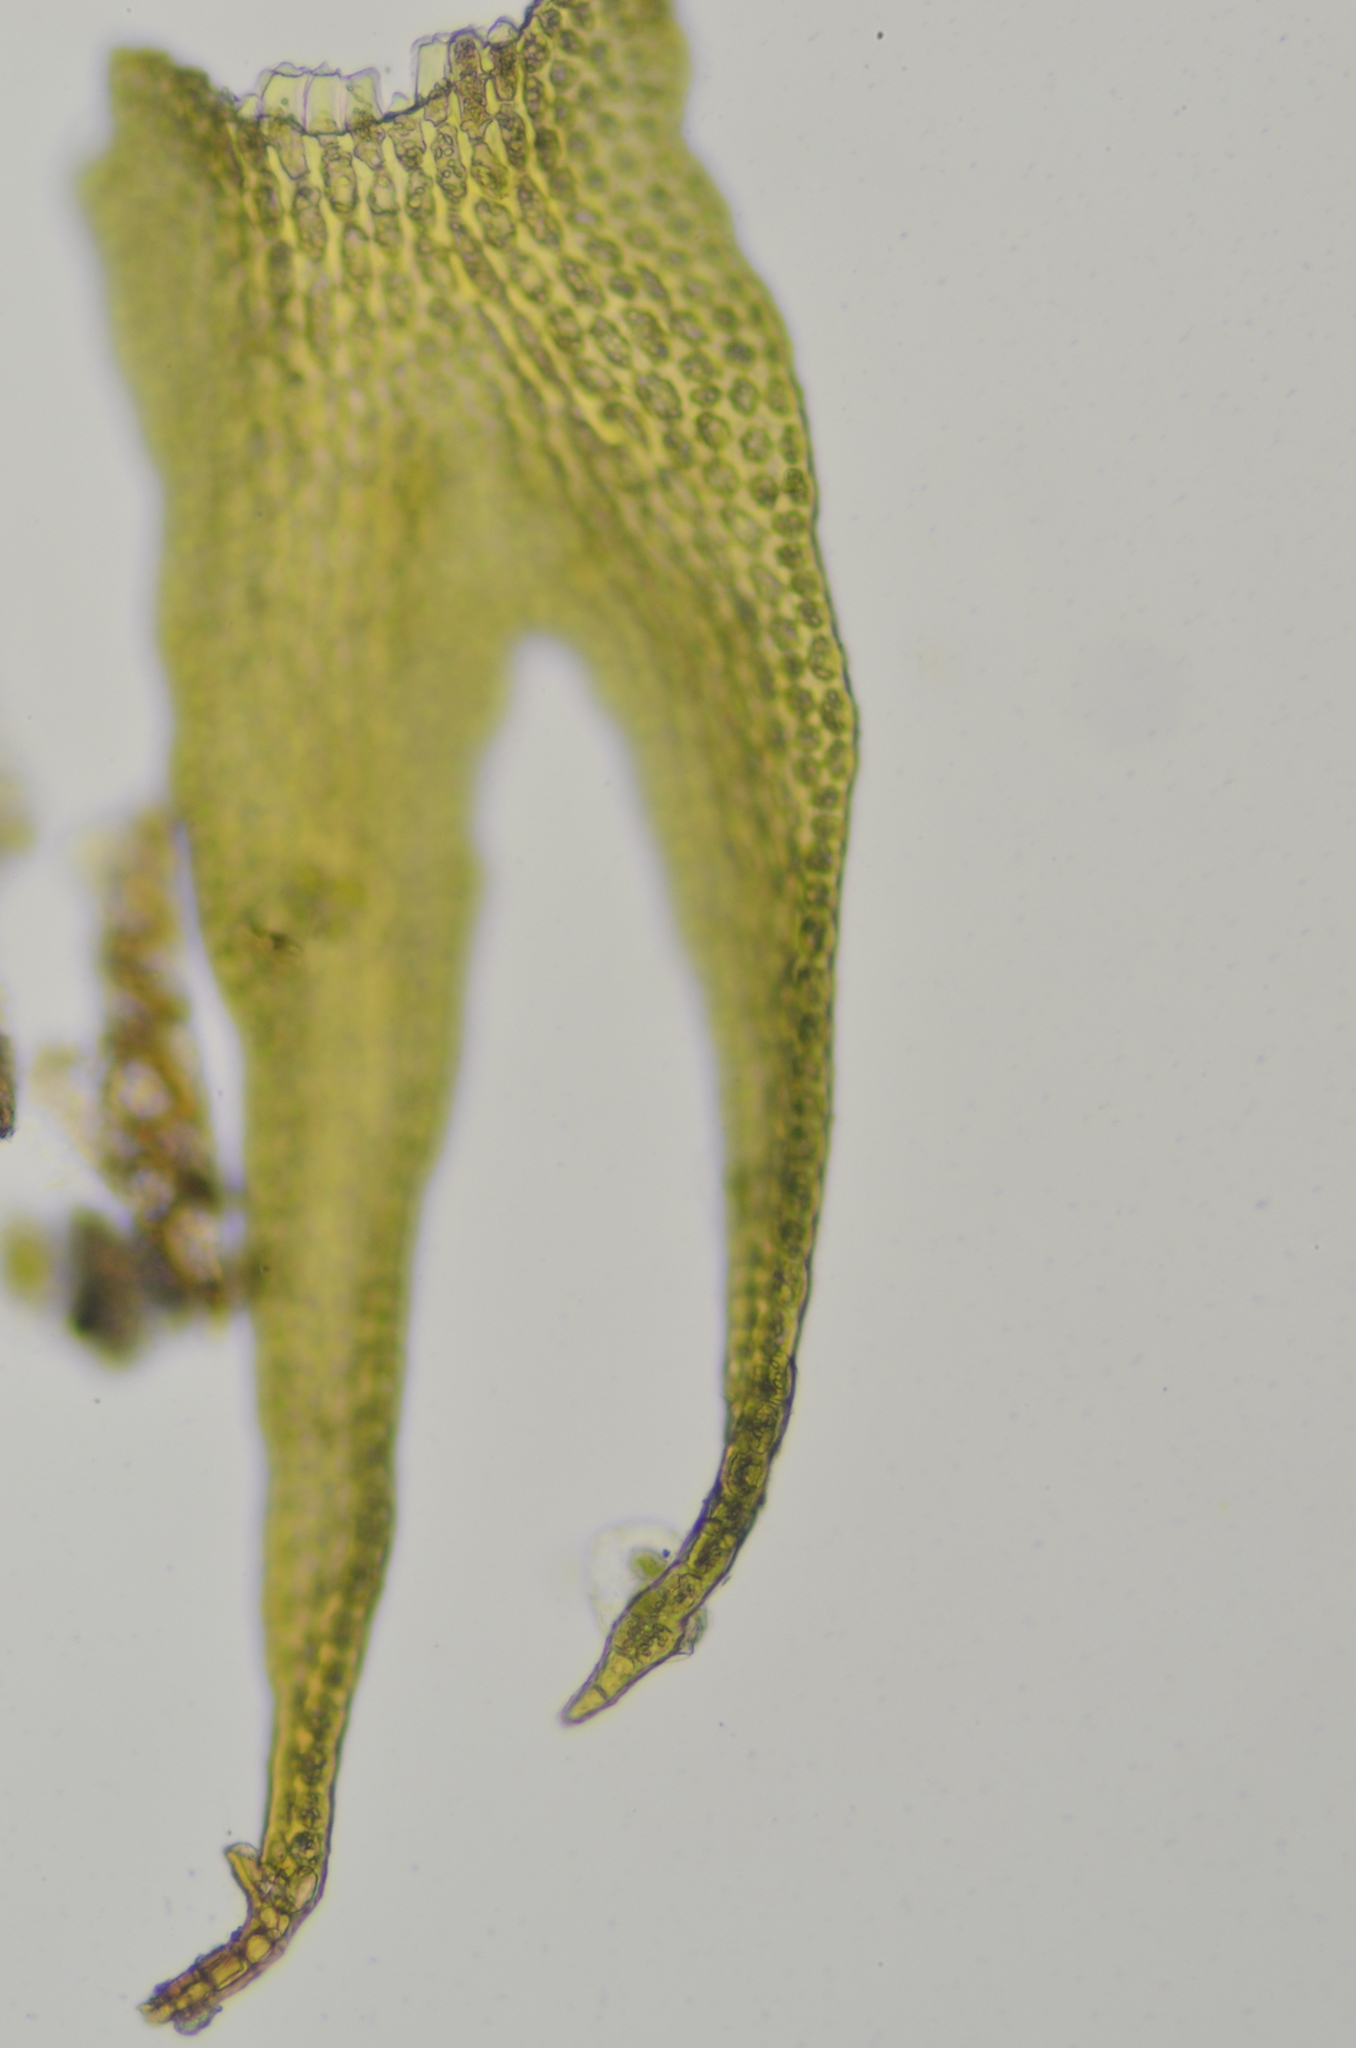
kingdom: Plantae
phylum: Marchantiophyta
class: Jungermanniopsida
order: Jungermanniales
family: Herbertaceae
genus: Herbertus
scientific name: Herbertus aduncus
